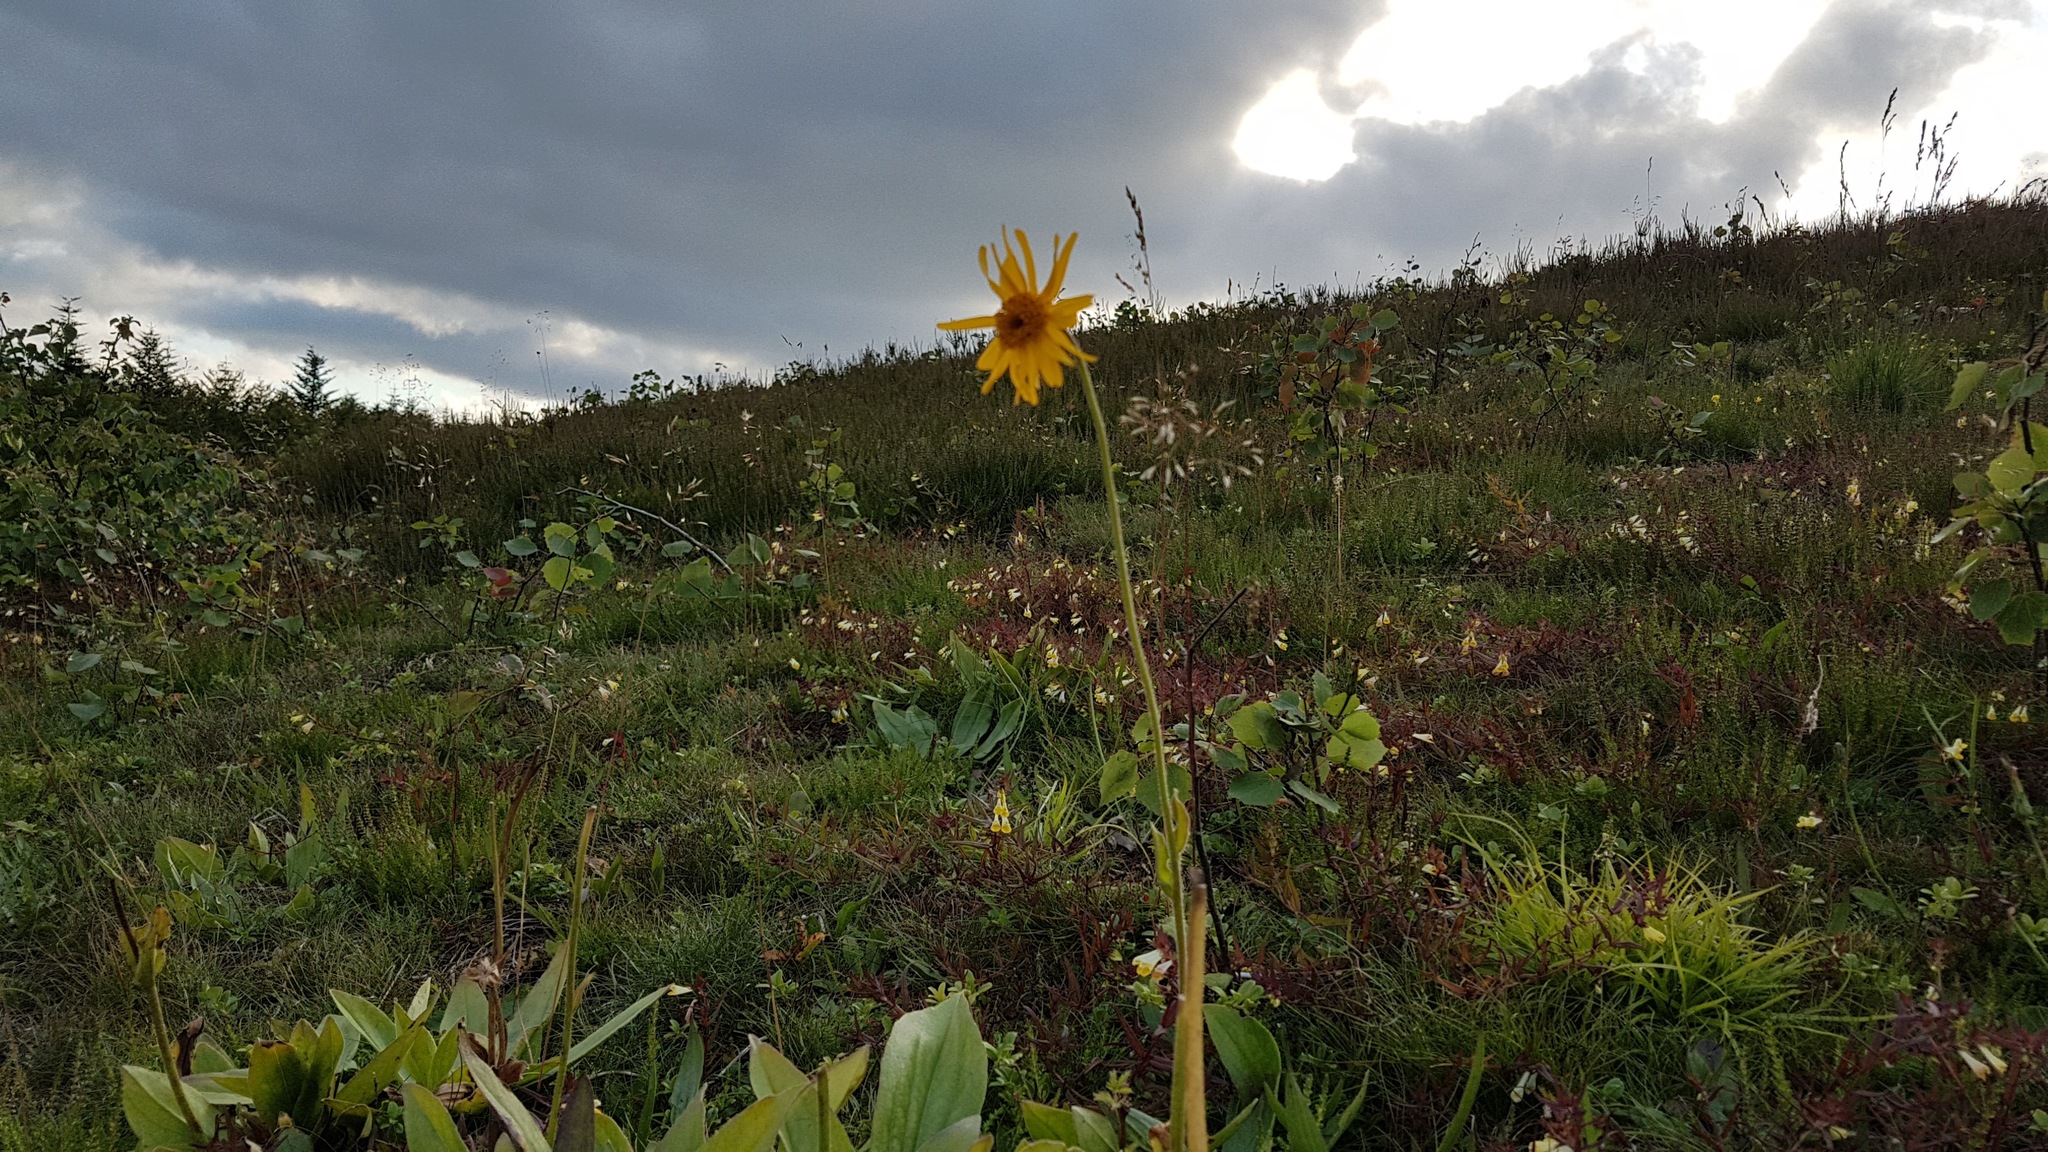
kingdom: Plantae
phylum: Tracheophyta
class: Magnoliopsida
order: Asterales
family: Asteraceae
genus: Arnica
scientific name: Arnica montana
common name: Leopard's bane
